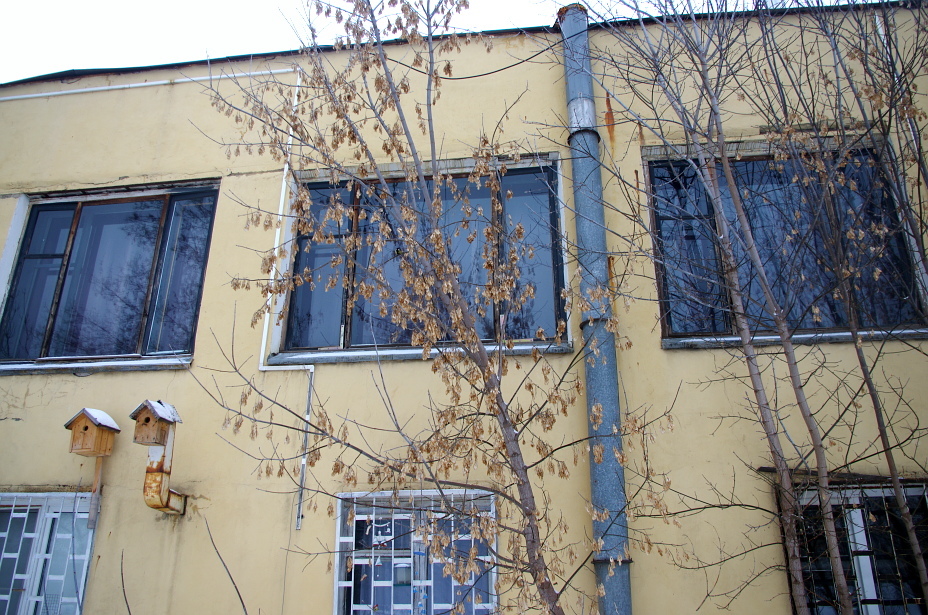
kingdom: Plantae
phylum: Tracheophyta
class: Magnoliopsida
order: Sapindales
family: Sapindaceae
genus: Acer
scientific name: Acer negundo
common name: Ashleaf maple
